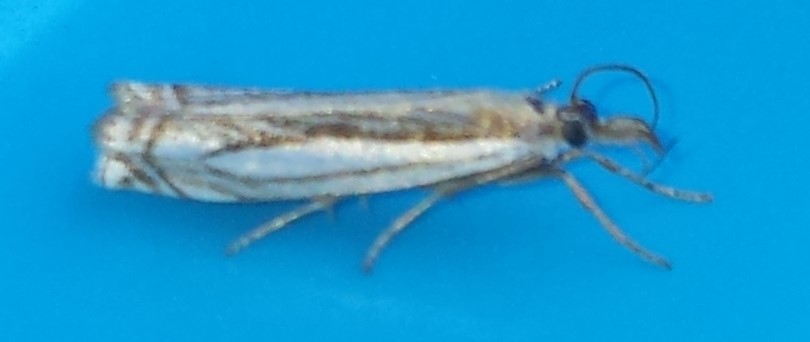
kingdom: Animalia
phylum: Arthropoda
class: Insecta
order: Lepidoptera
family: Crambidae
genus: Crambus
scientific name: Crambus saltuellus
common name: Pasture grass-veneer
